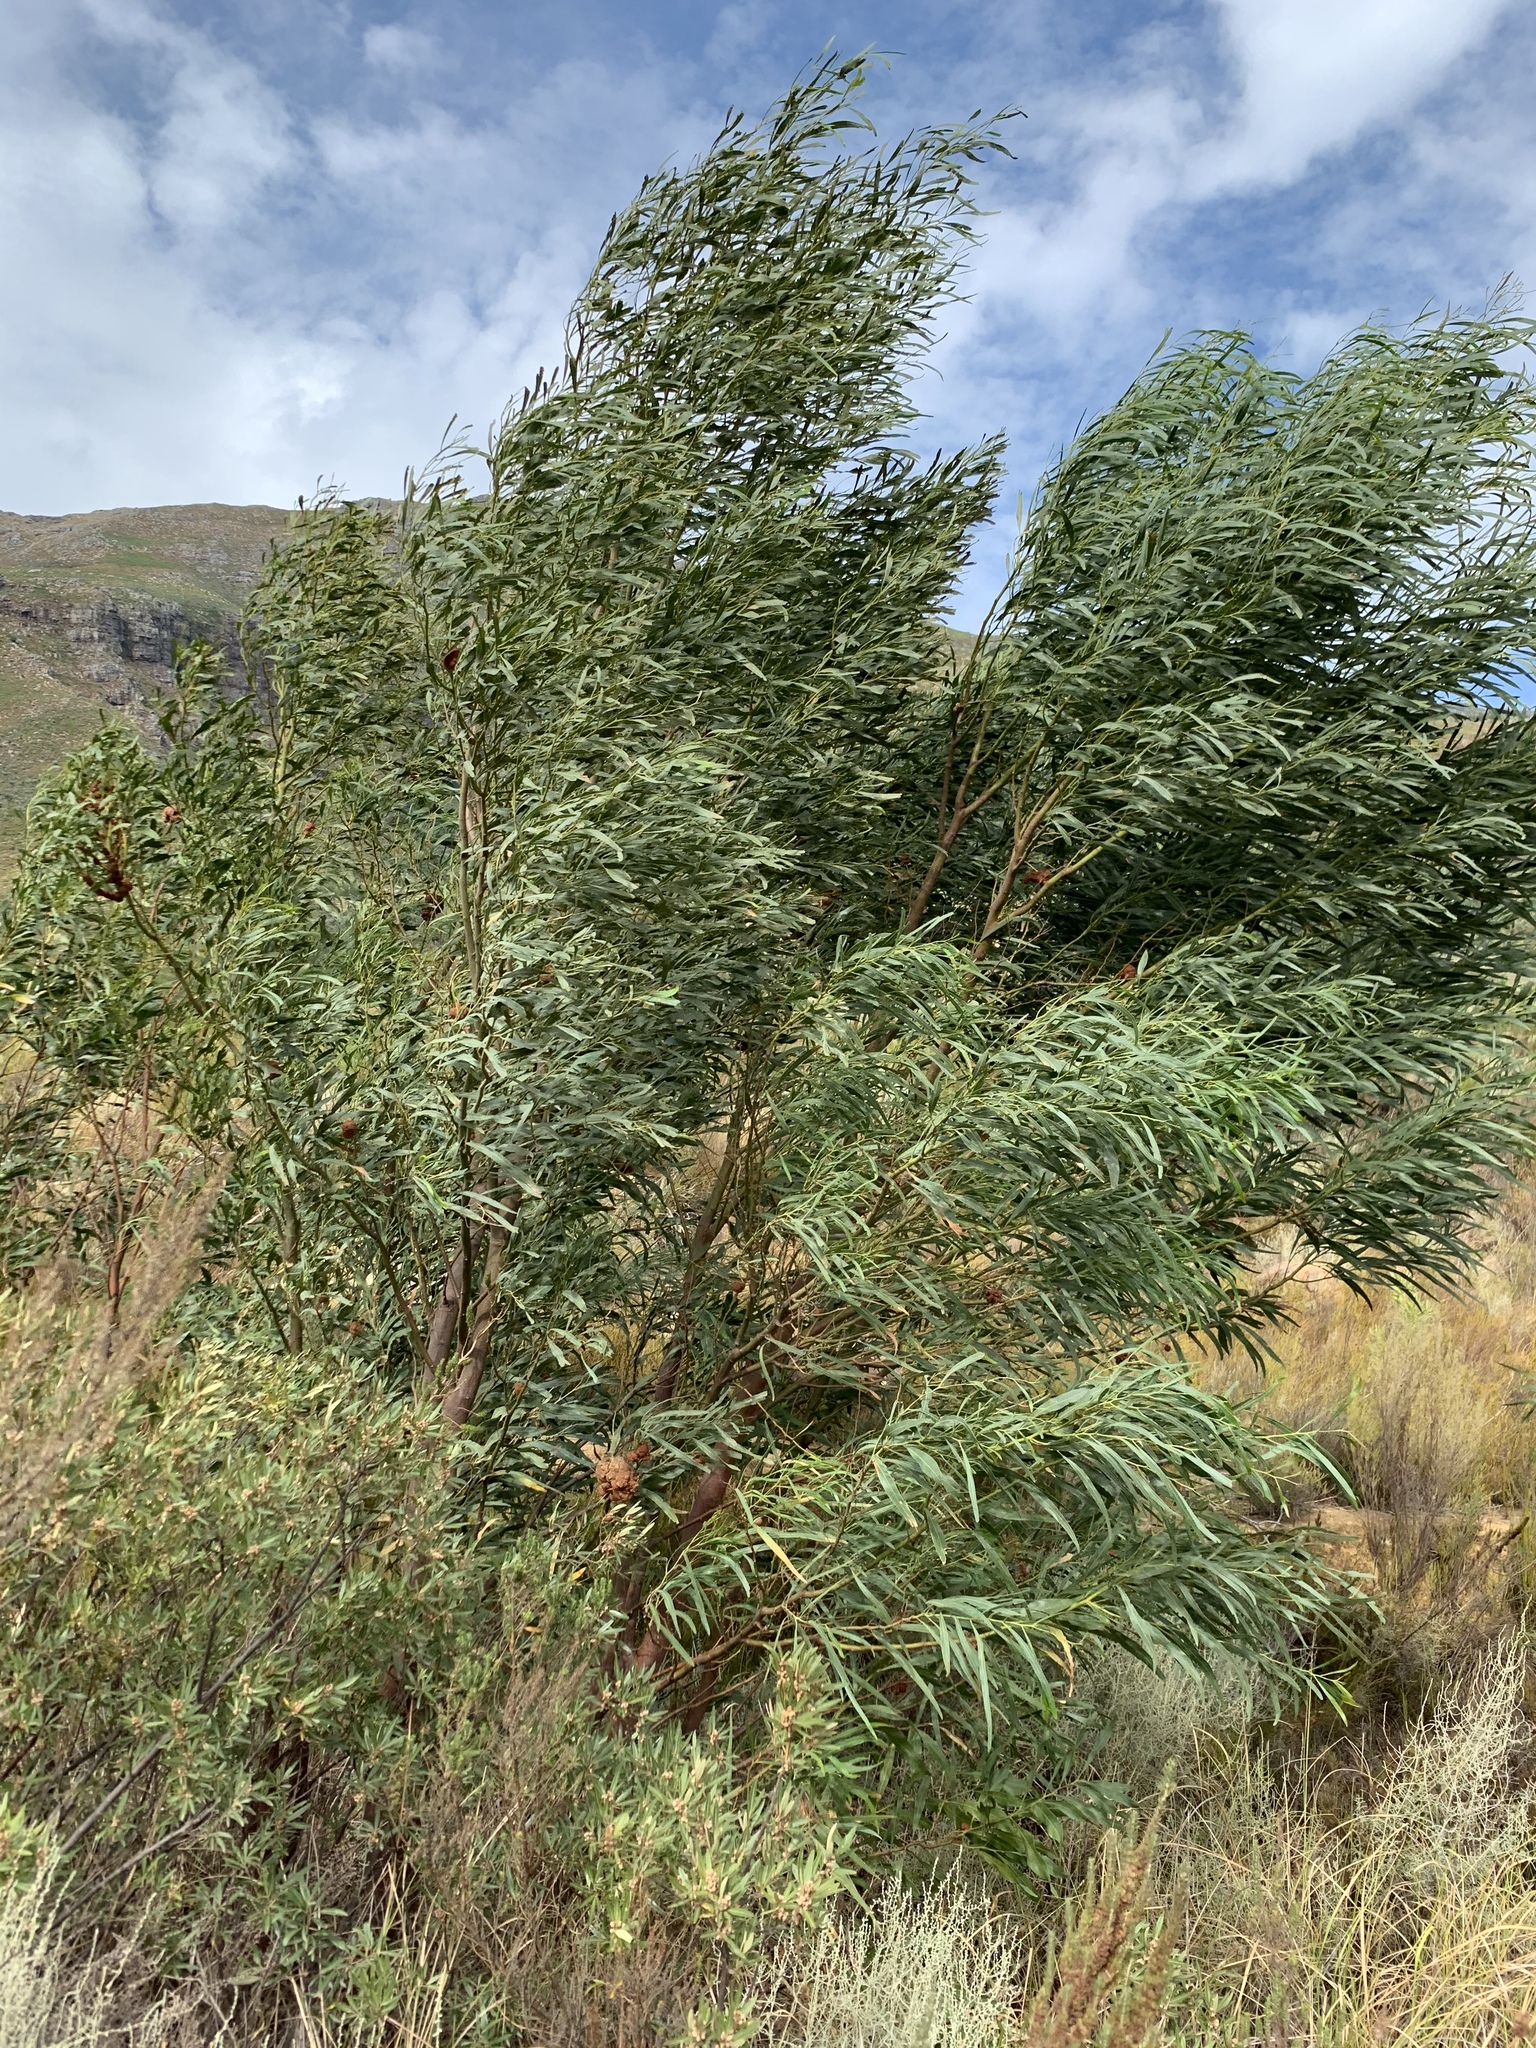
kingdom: Plantae
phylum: Tracheophyta
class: Magnoliopsida
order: Fabales
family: Fabaceae
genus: Acacia
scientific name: Acacia saligna
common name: Orange wattle
